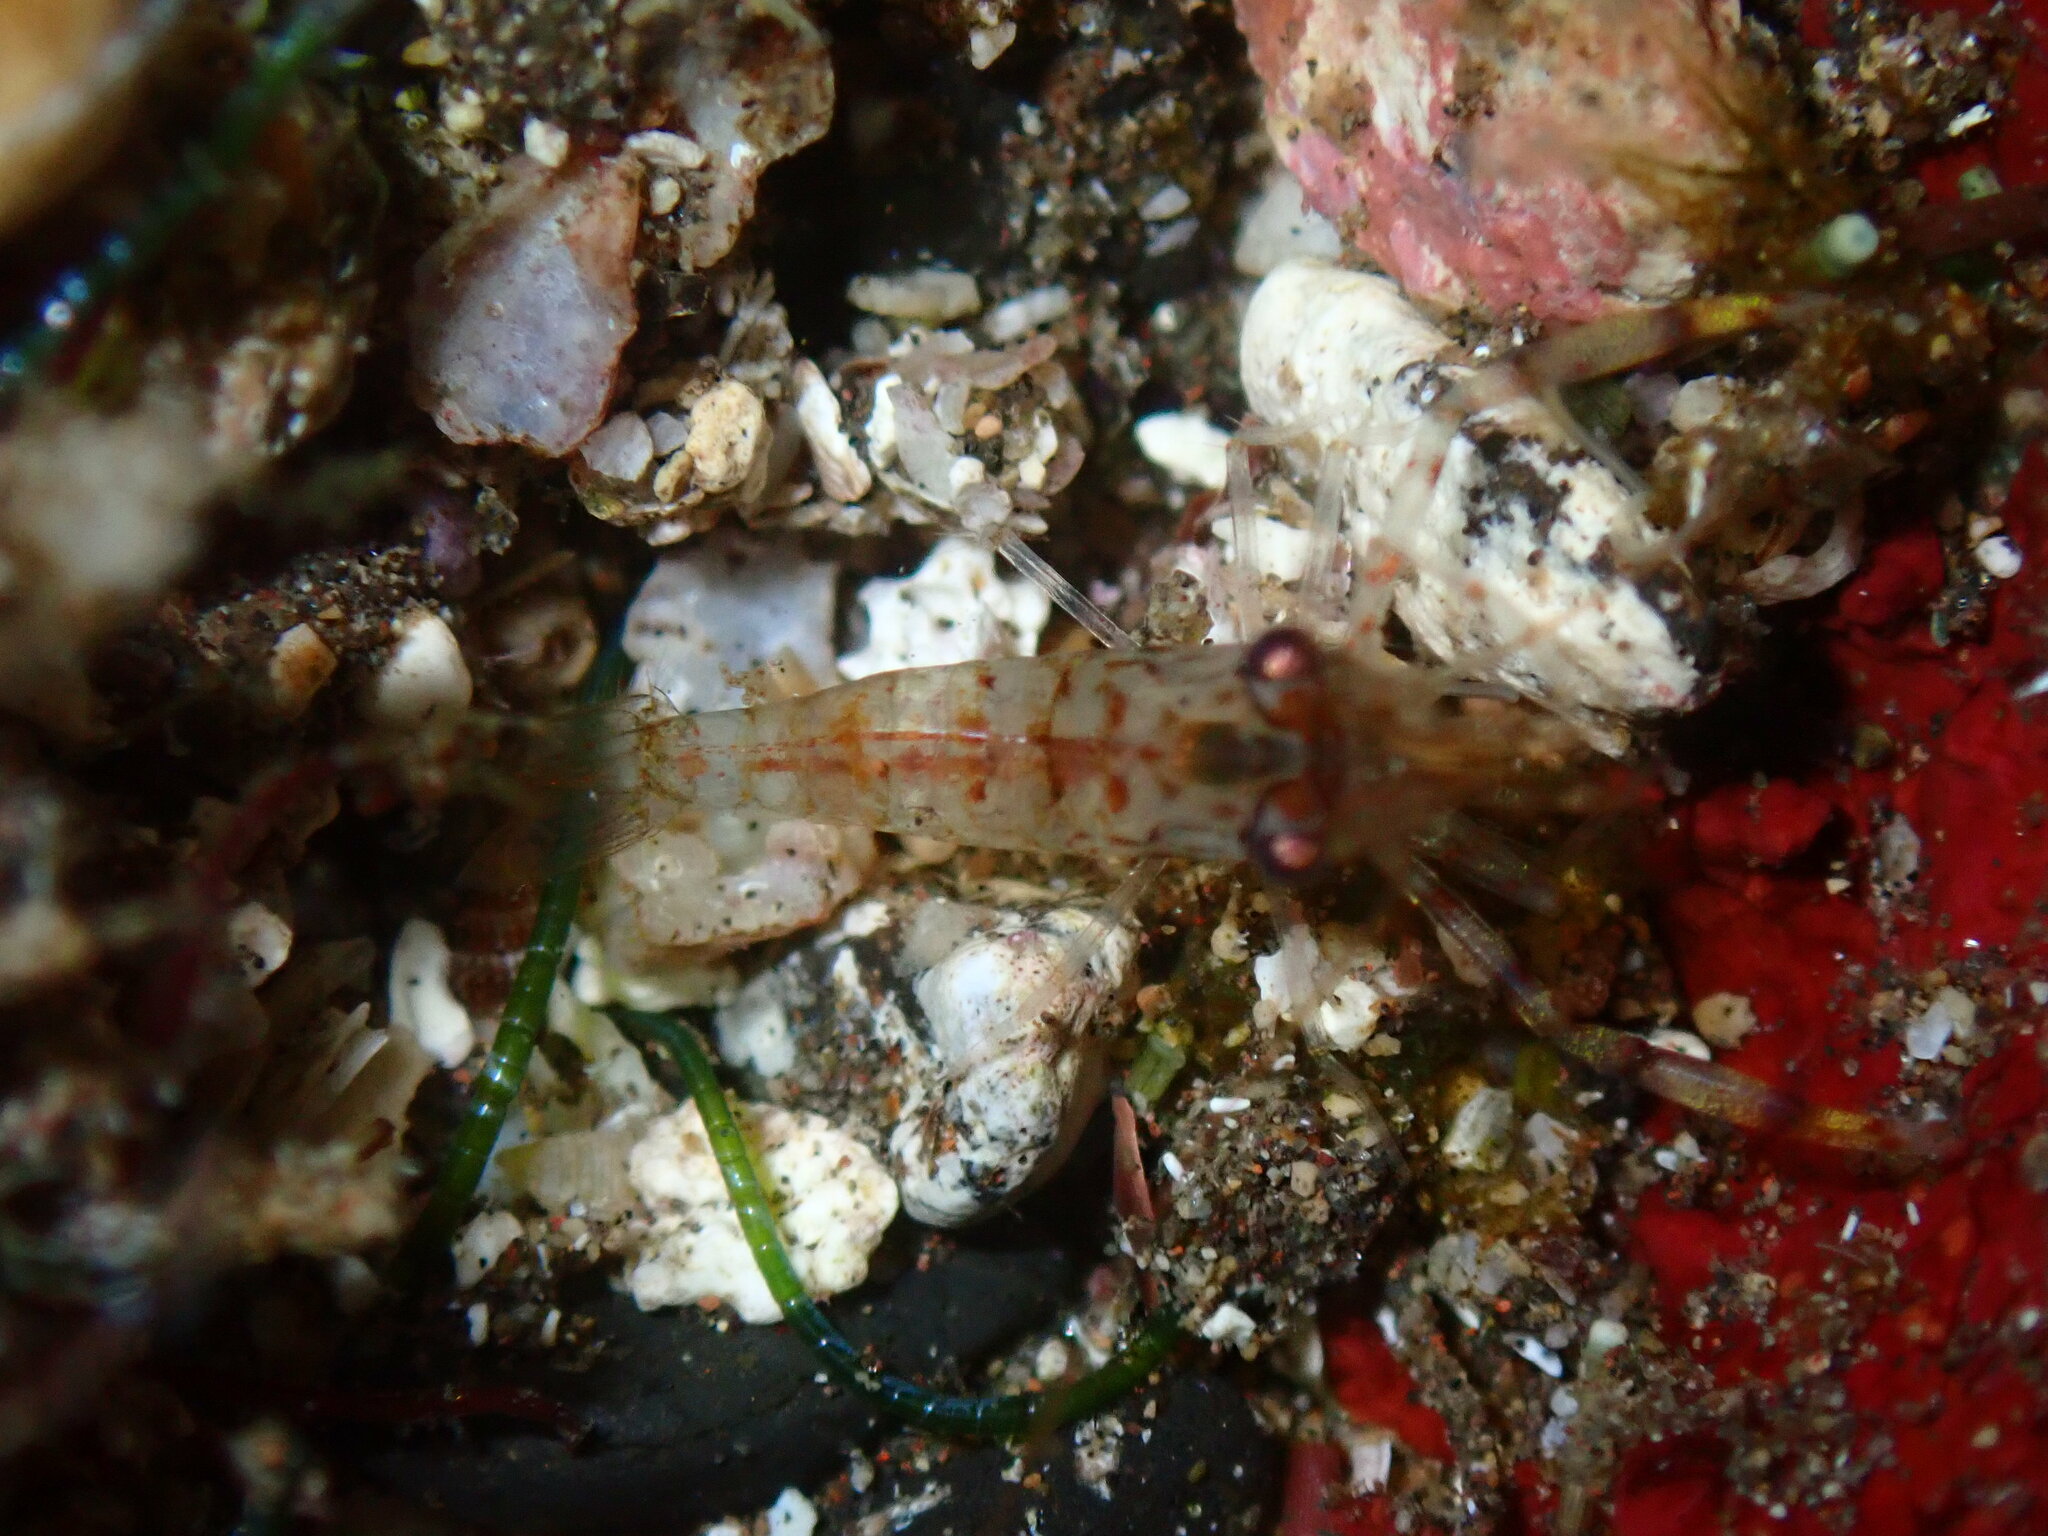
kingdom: Animalia
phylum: Arthropoda
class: Malacostraca
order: Decapoda
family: Palaemonidae
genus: Brachycarpus
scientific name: Brachycarpus biunguiculatus
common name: Two-clawed shrimp
